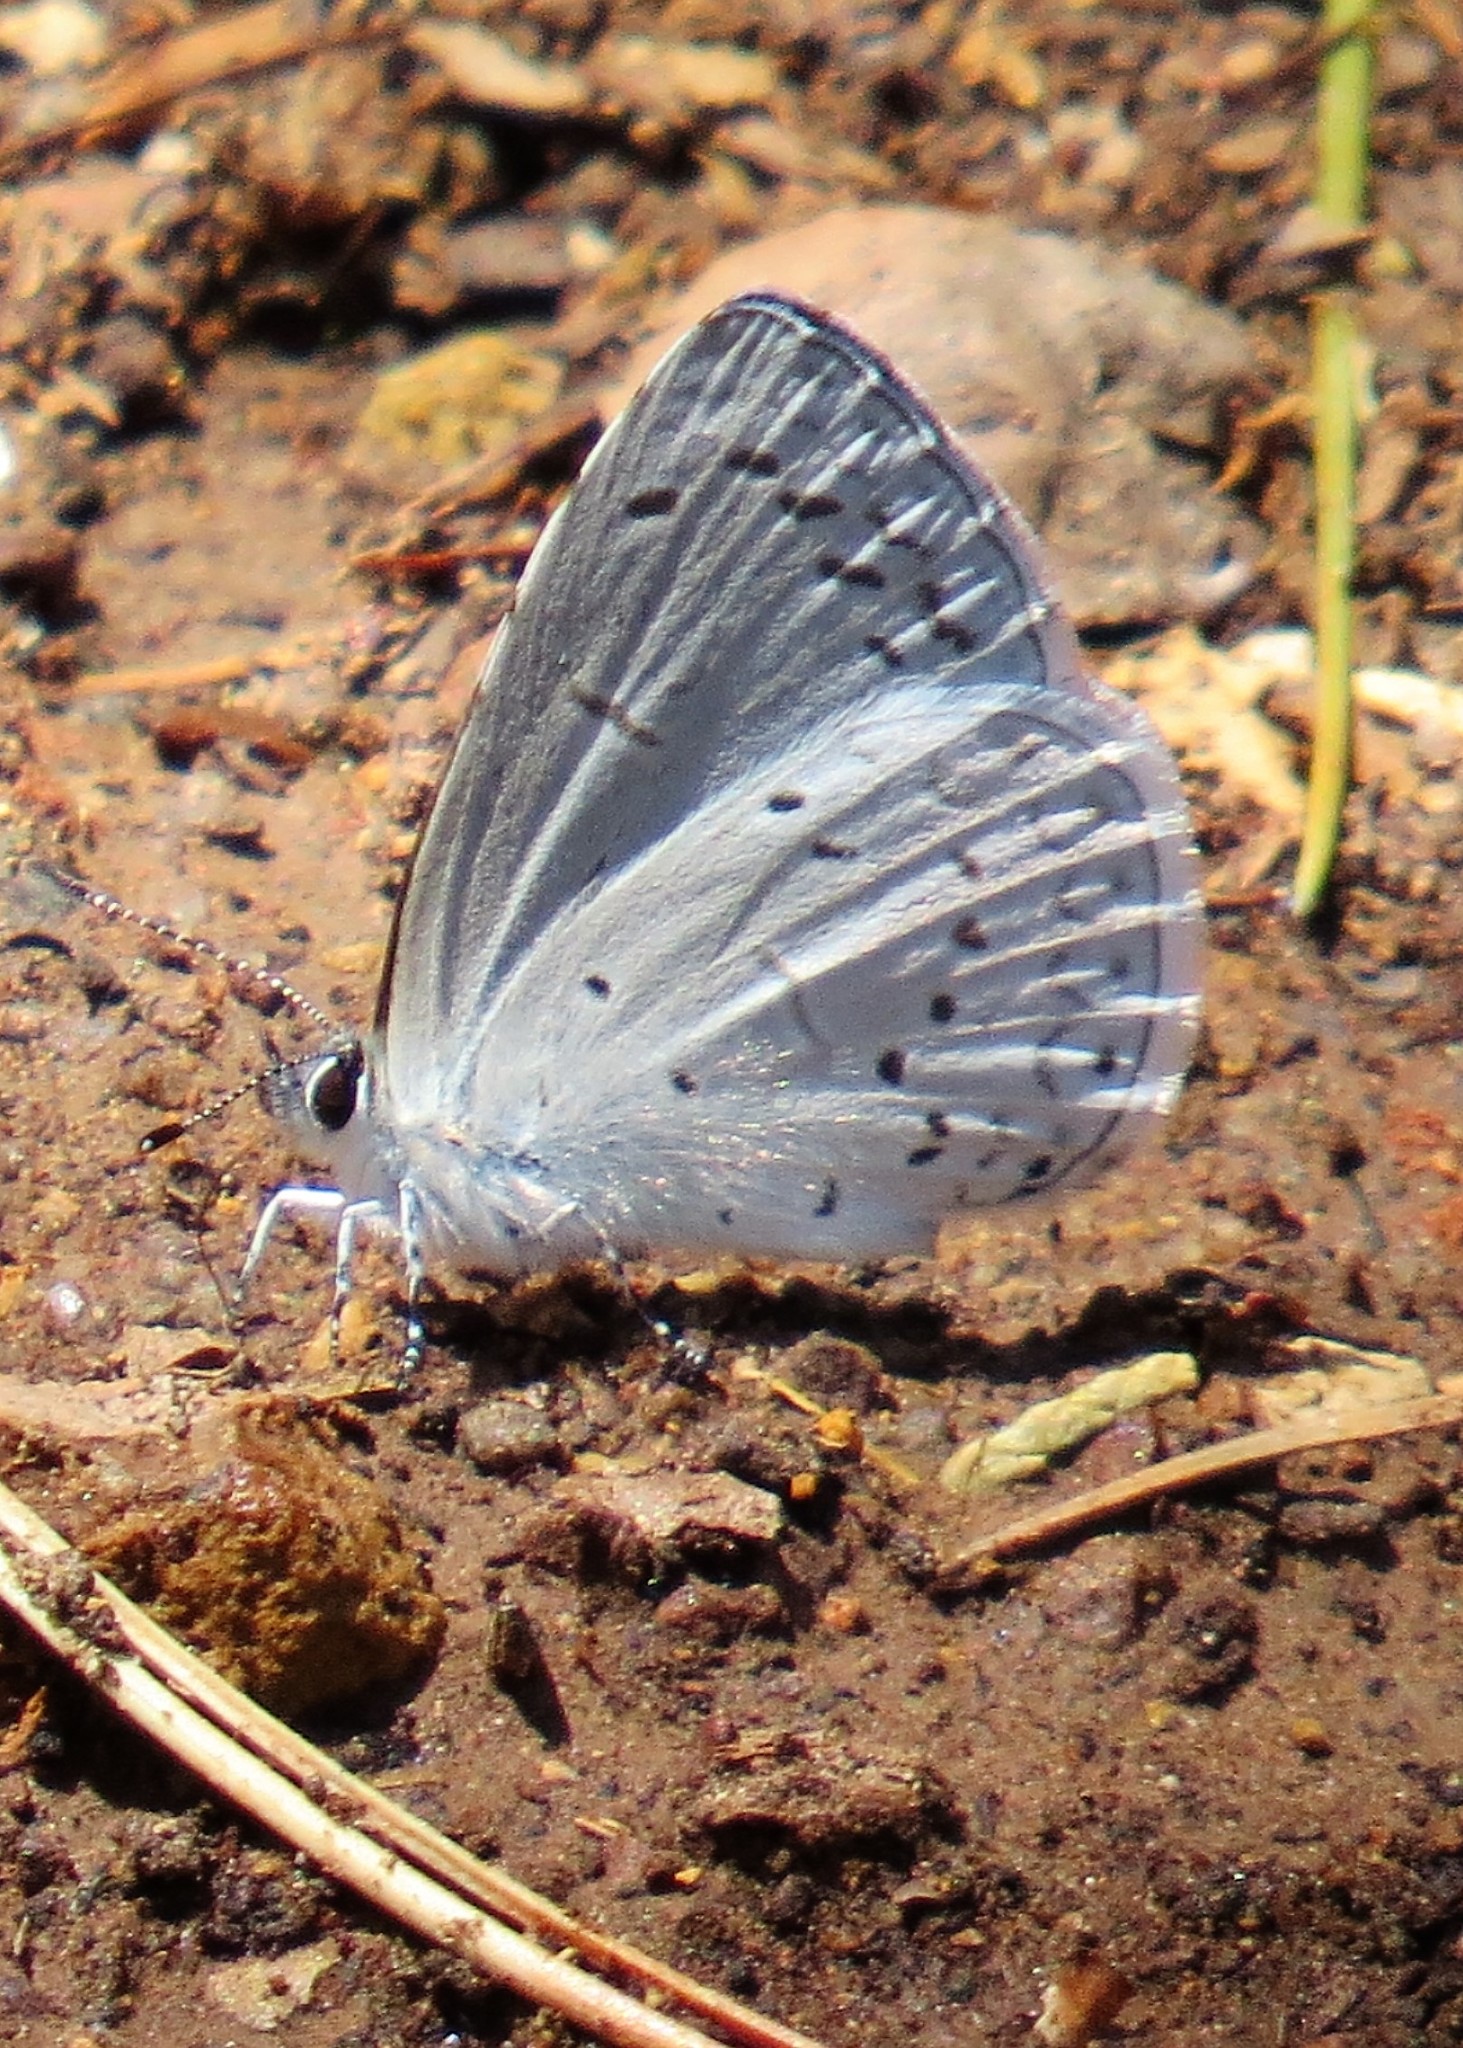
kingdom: Animalia
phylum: Arthropoda
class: Insecta
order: Lepidoptera
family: Lycaenidae
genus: Celastrina
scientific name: Celastrina ladon
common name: Spring azure
